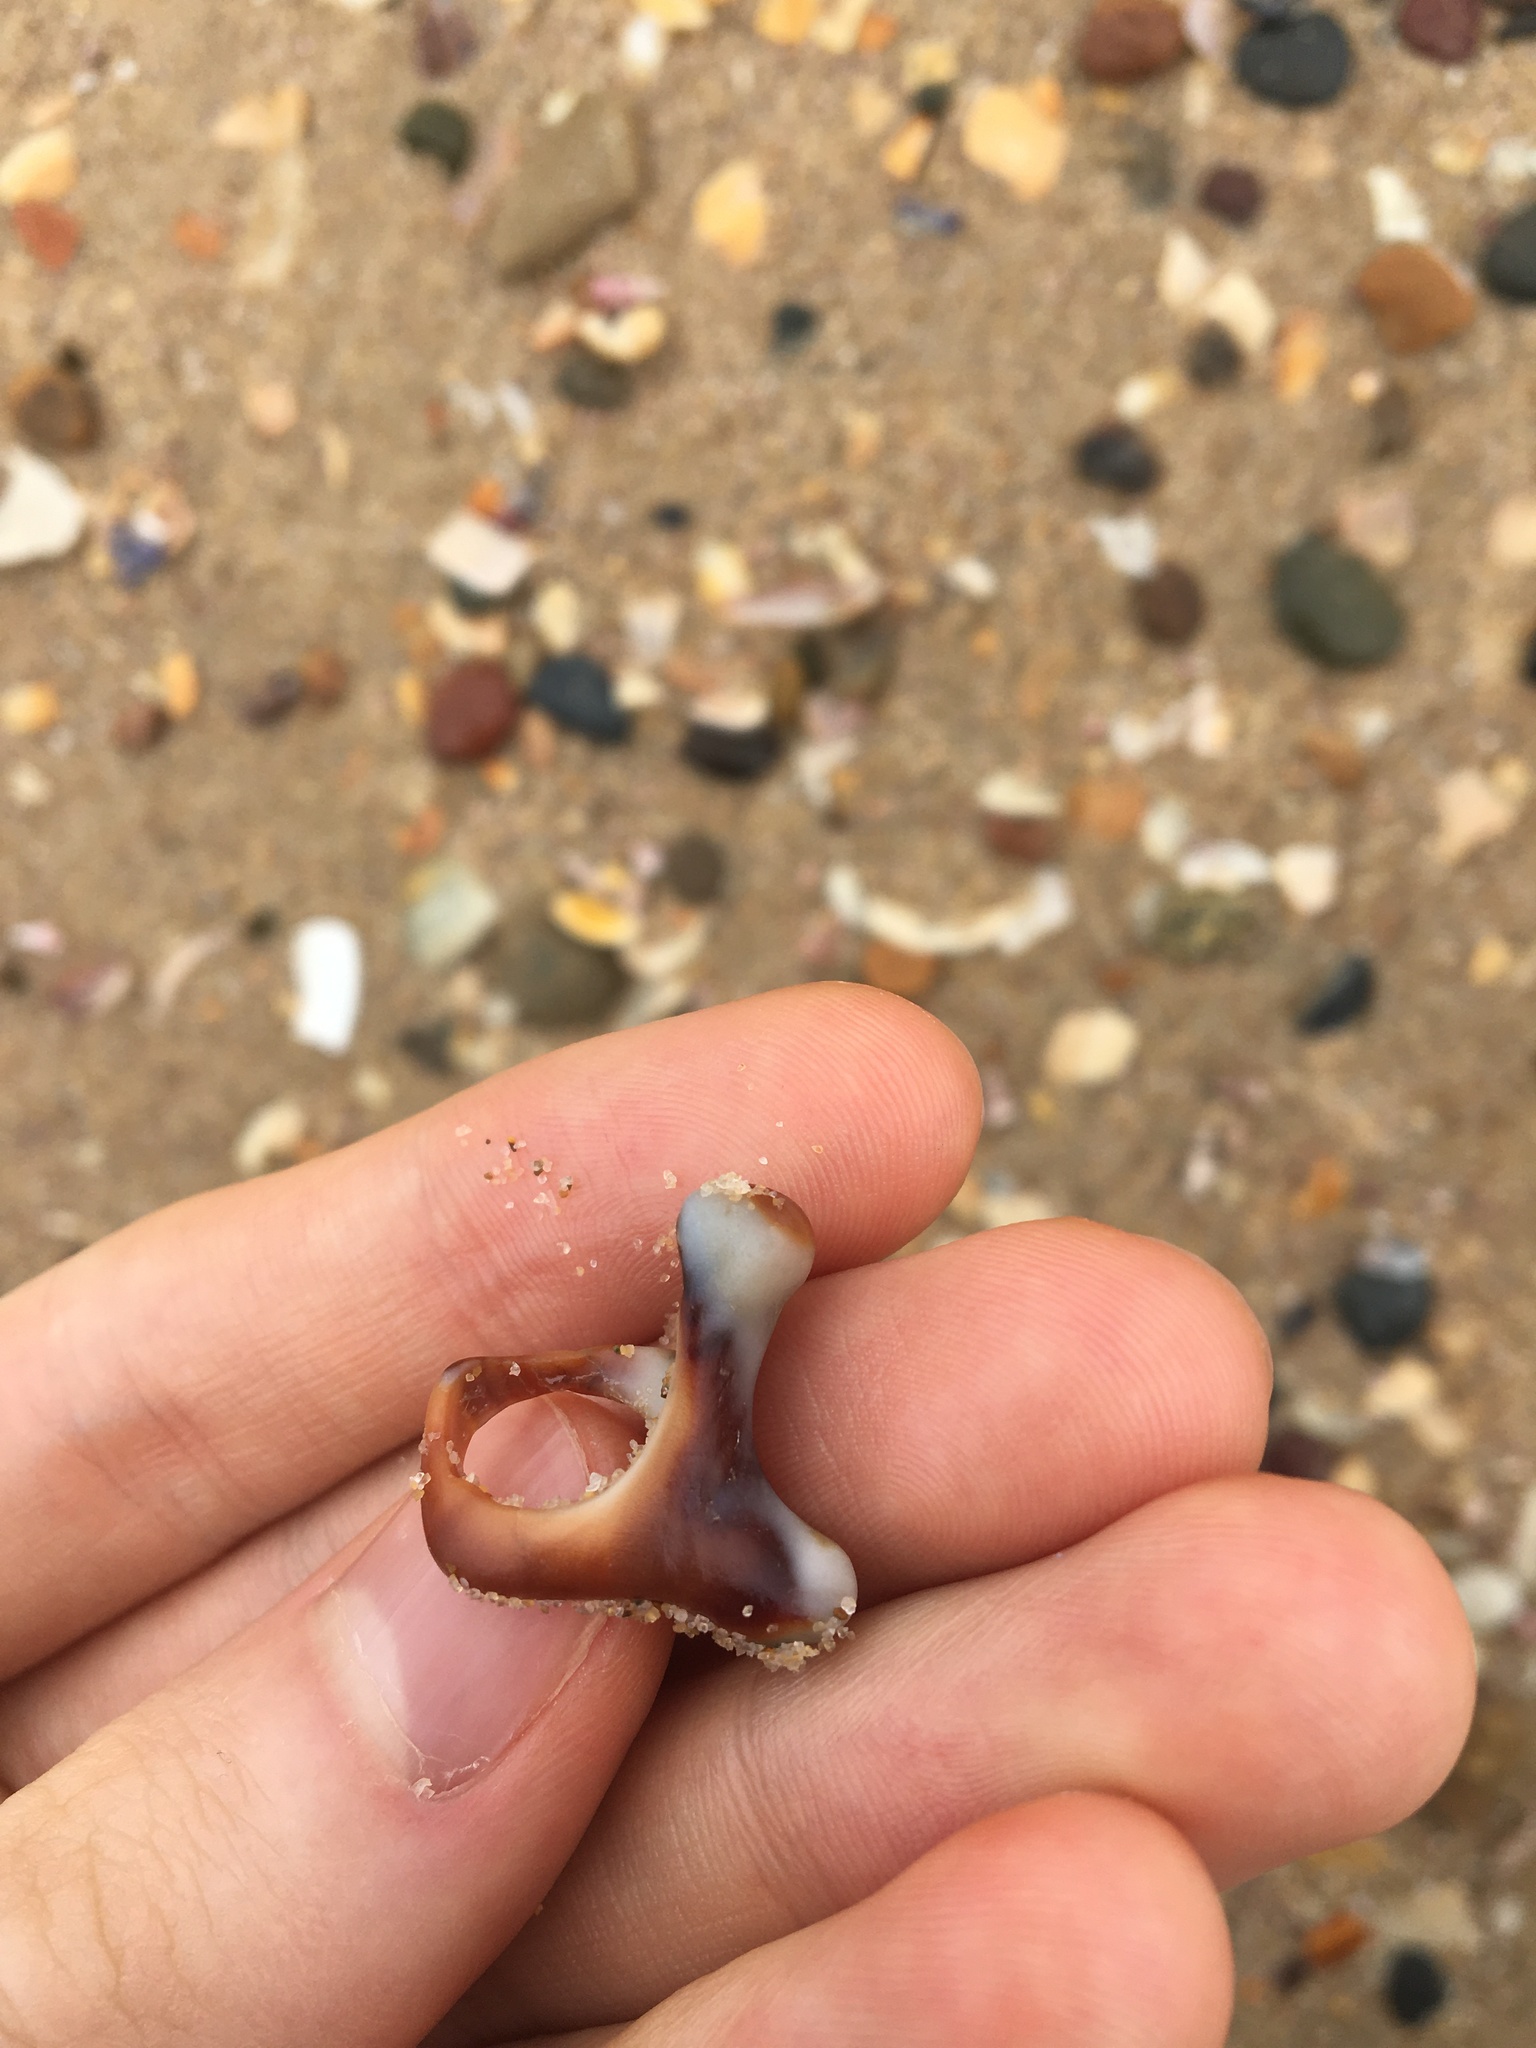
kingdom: Animalia
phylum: Mollusca
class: Gastropoda
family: Batillariidae
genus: Pyrazus
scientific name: Pyrazus ebeninus
